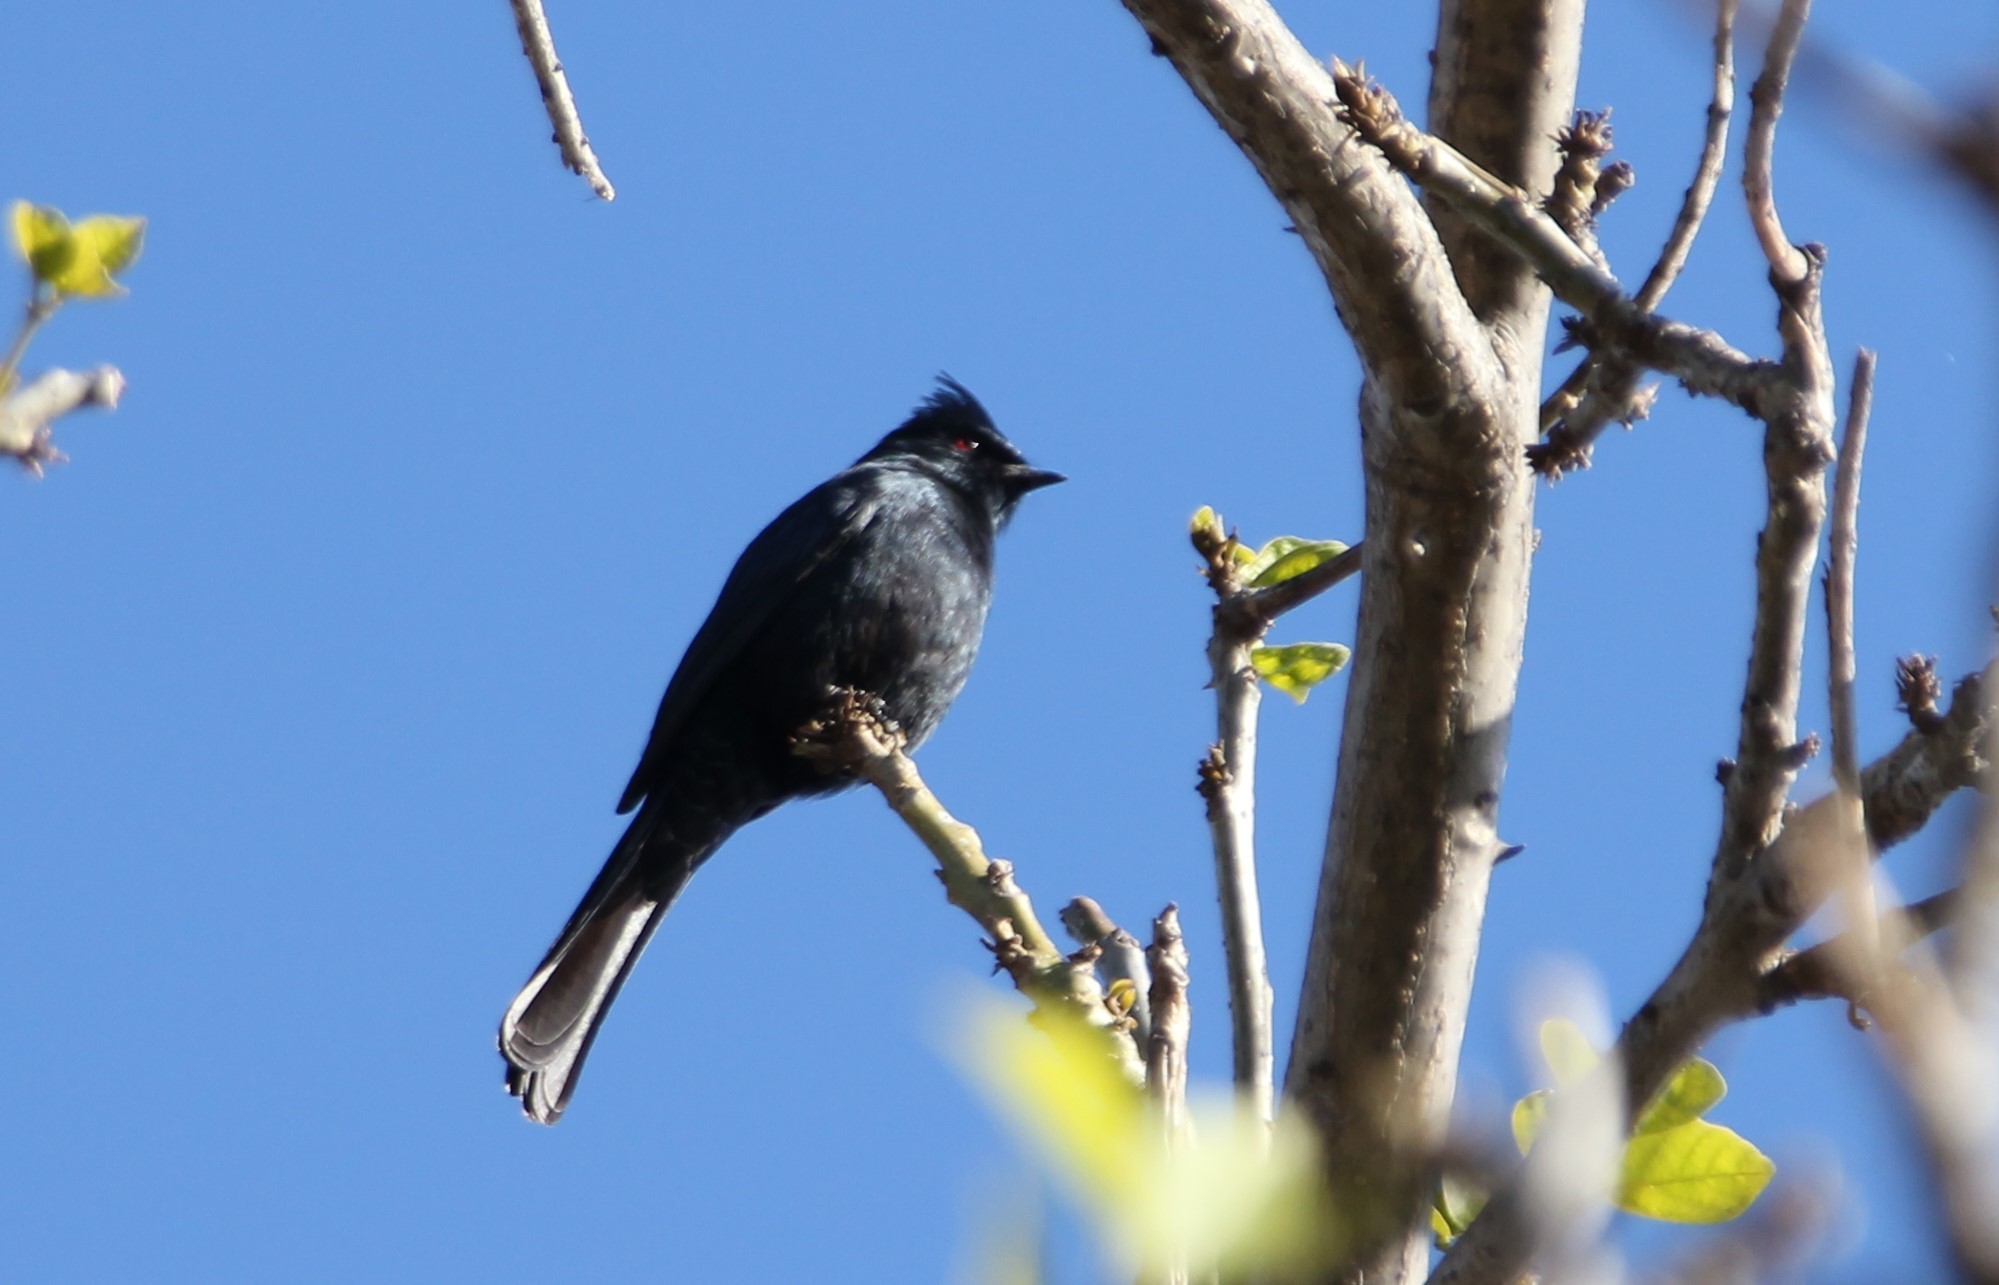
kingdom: Animalia
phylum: Chordata
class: Aves
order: Passeriformes
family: Ptilogonatidae
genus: Phainopepla
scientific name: Phainopepla nitens
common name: Phainopepla
